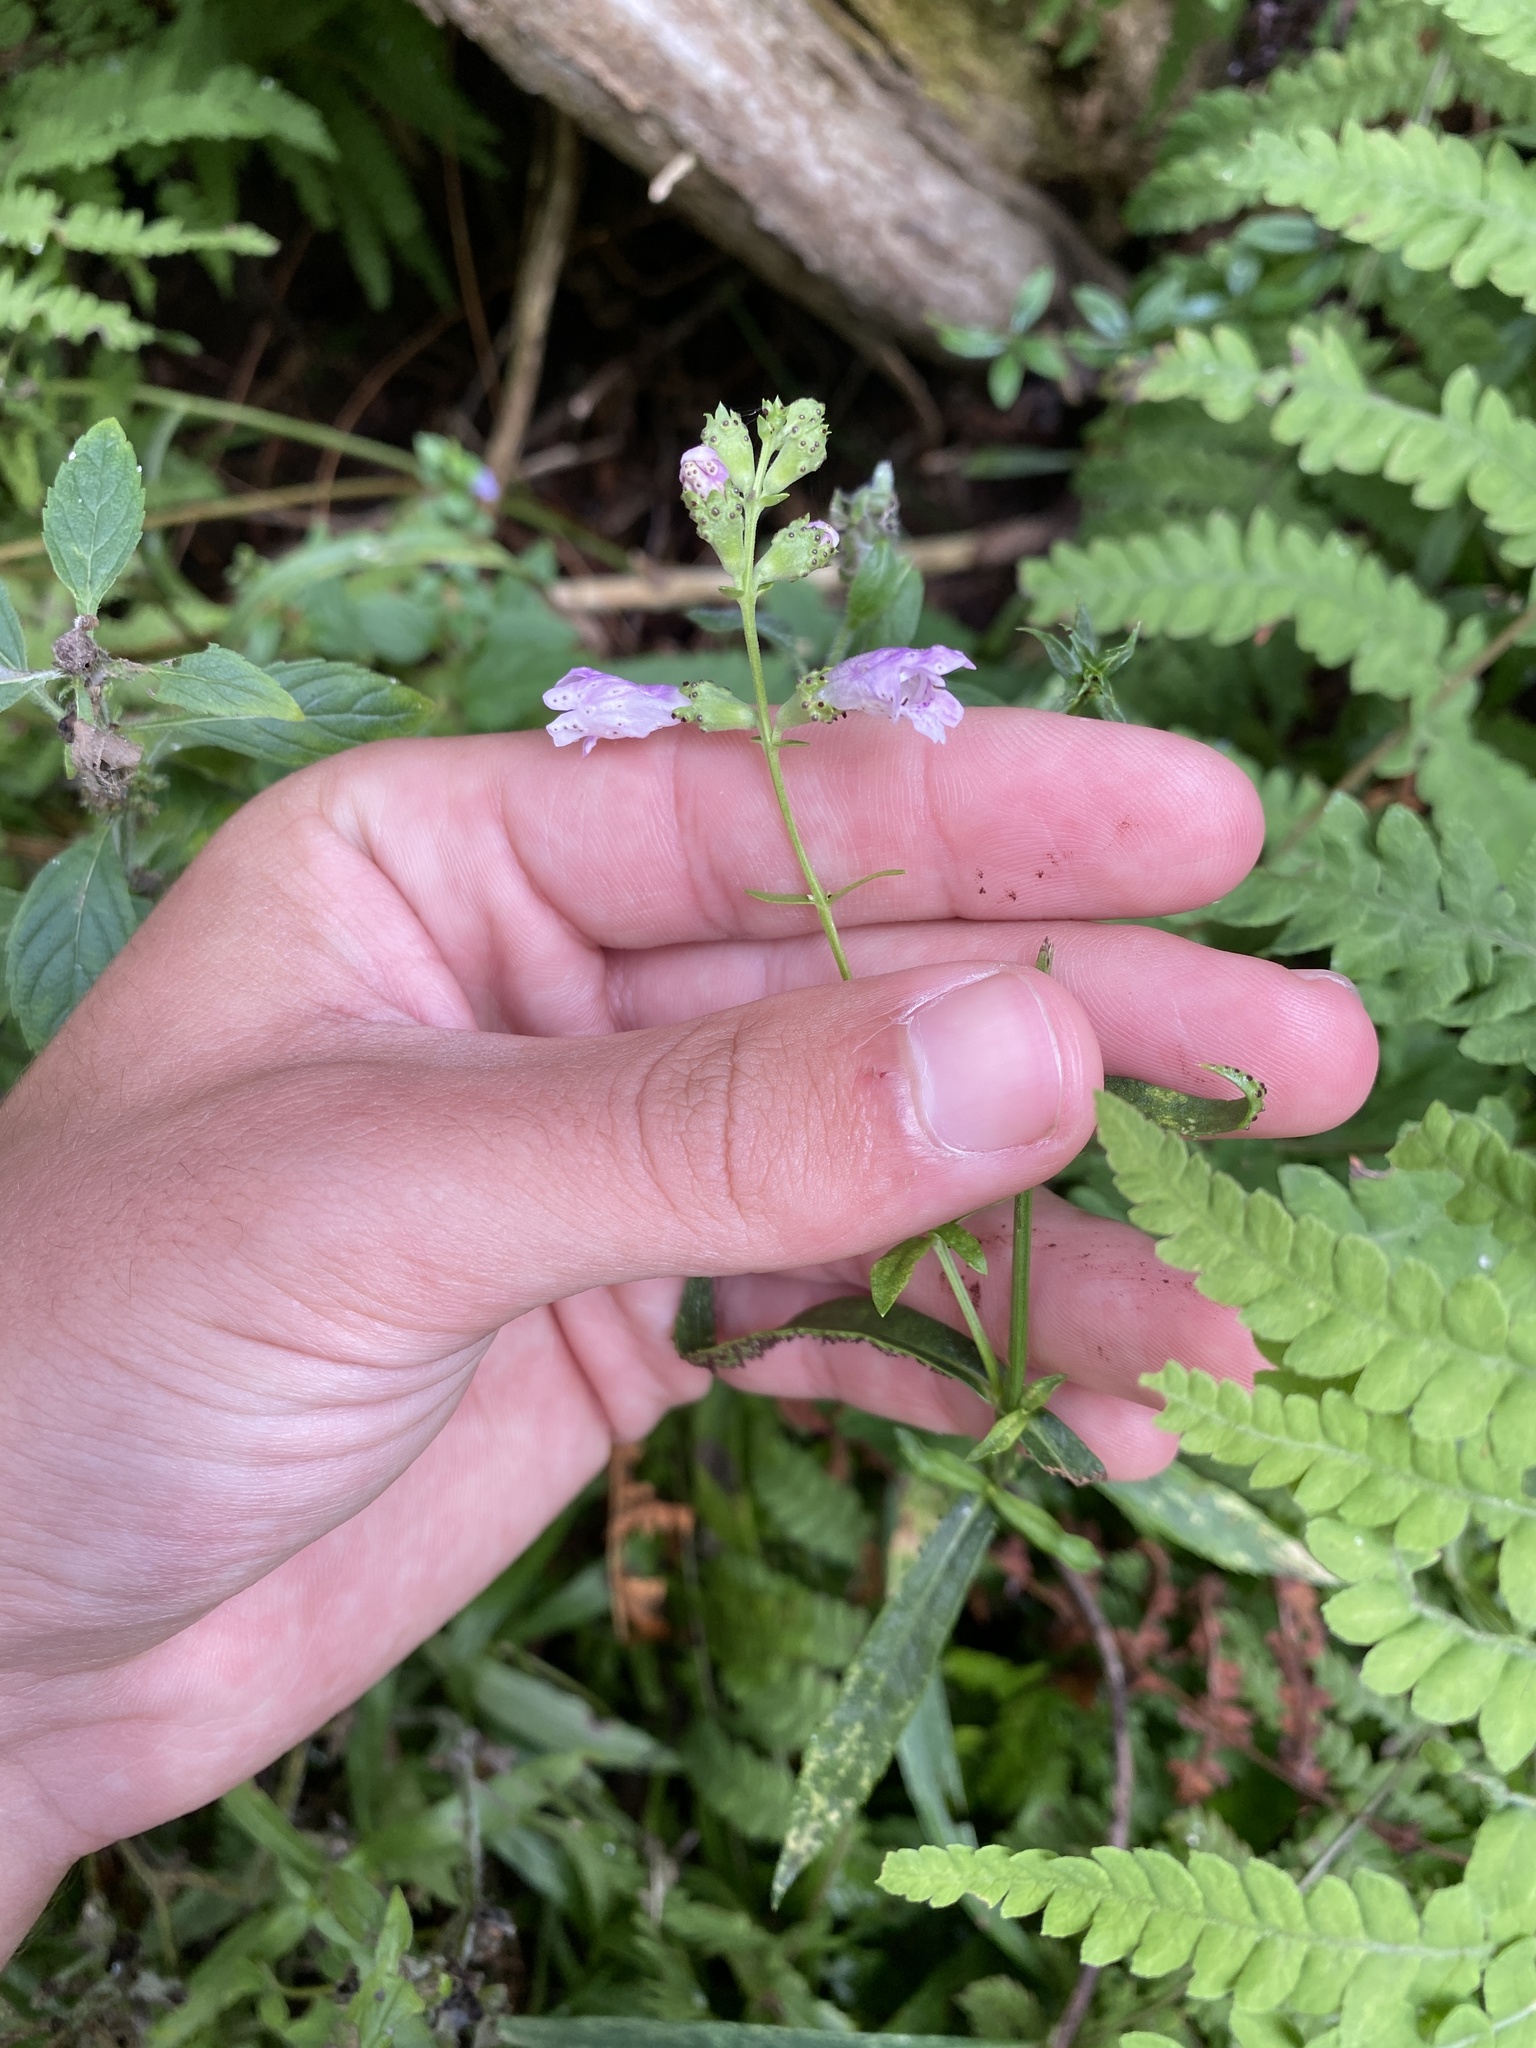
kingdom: Plantae
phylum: Tracheophyta
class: Magnoliopsida
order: Lamiales
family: Lamiaceae
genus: Physostegia
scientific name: Physostegia virginiana
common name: Obedient-plant
